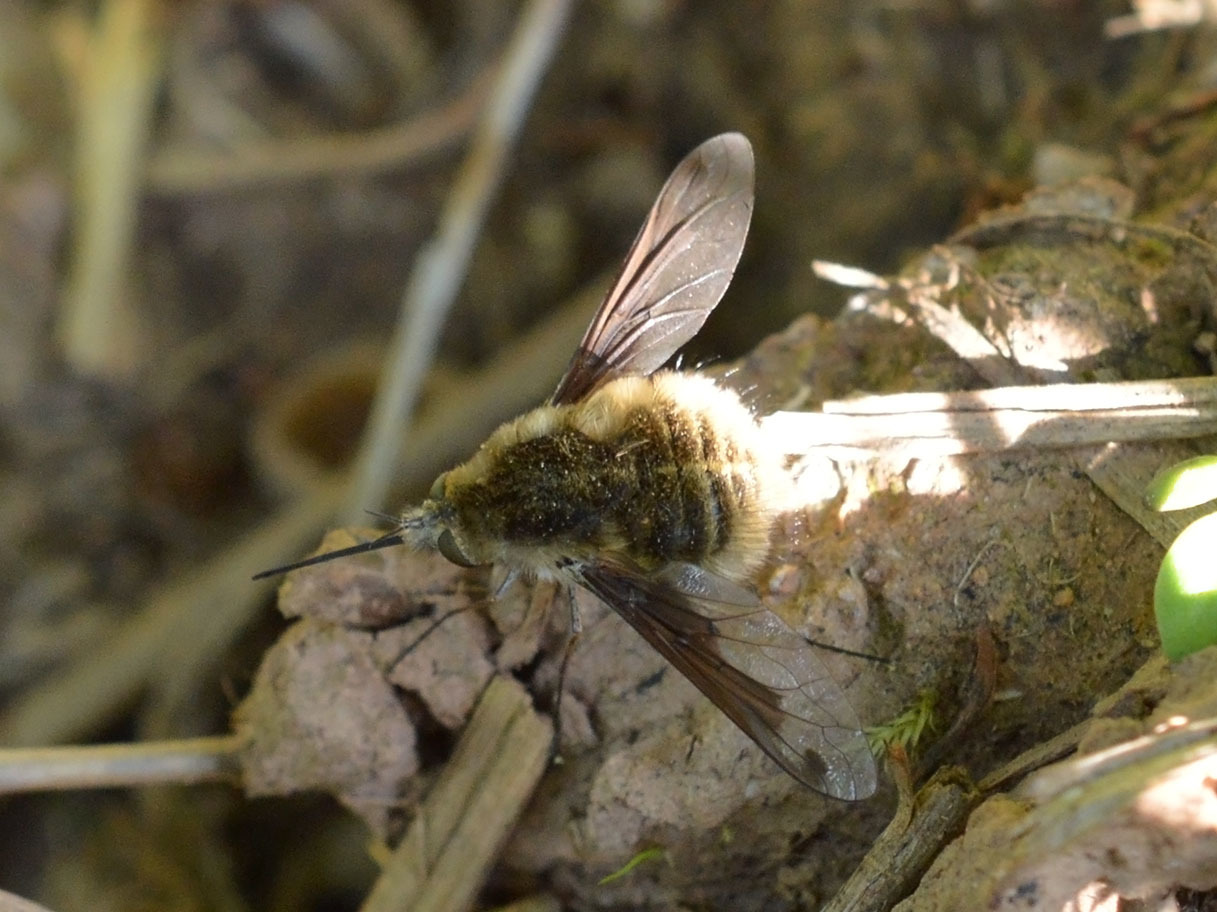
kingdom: Animalia
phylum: Arthropoda
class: Insecta
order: Diptera
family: Bombyliidae
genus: Bombylius
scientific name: Bombylius fimbriatus
